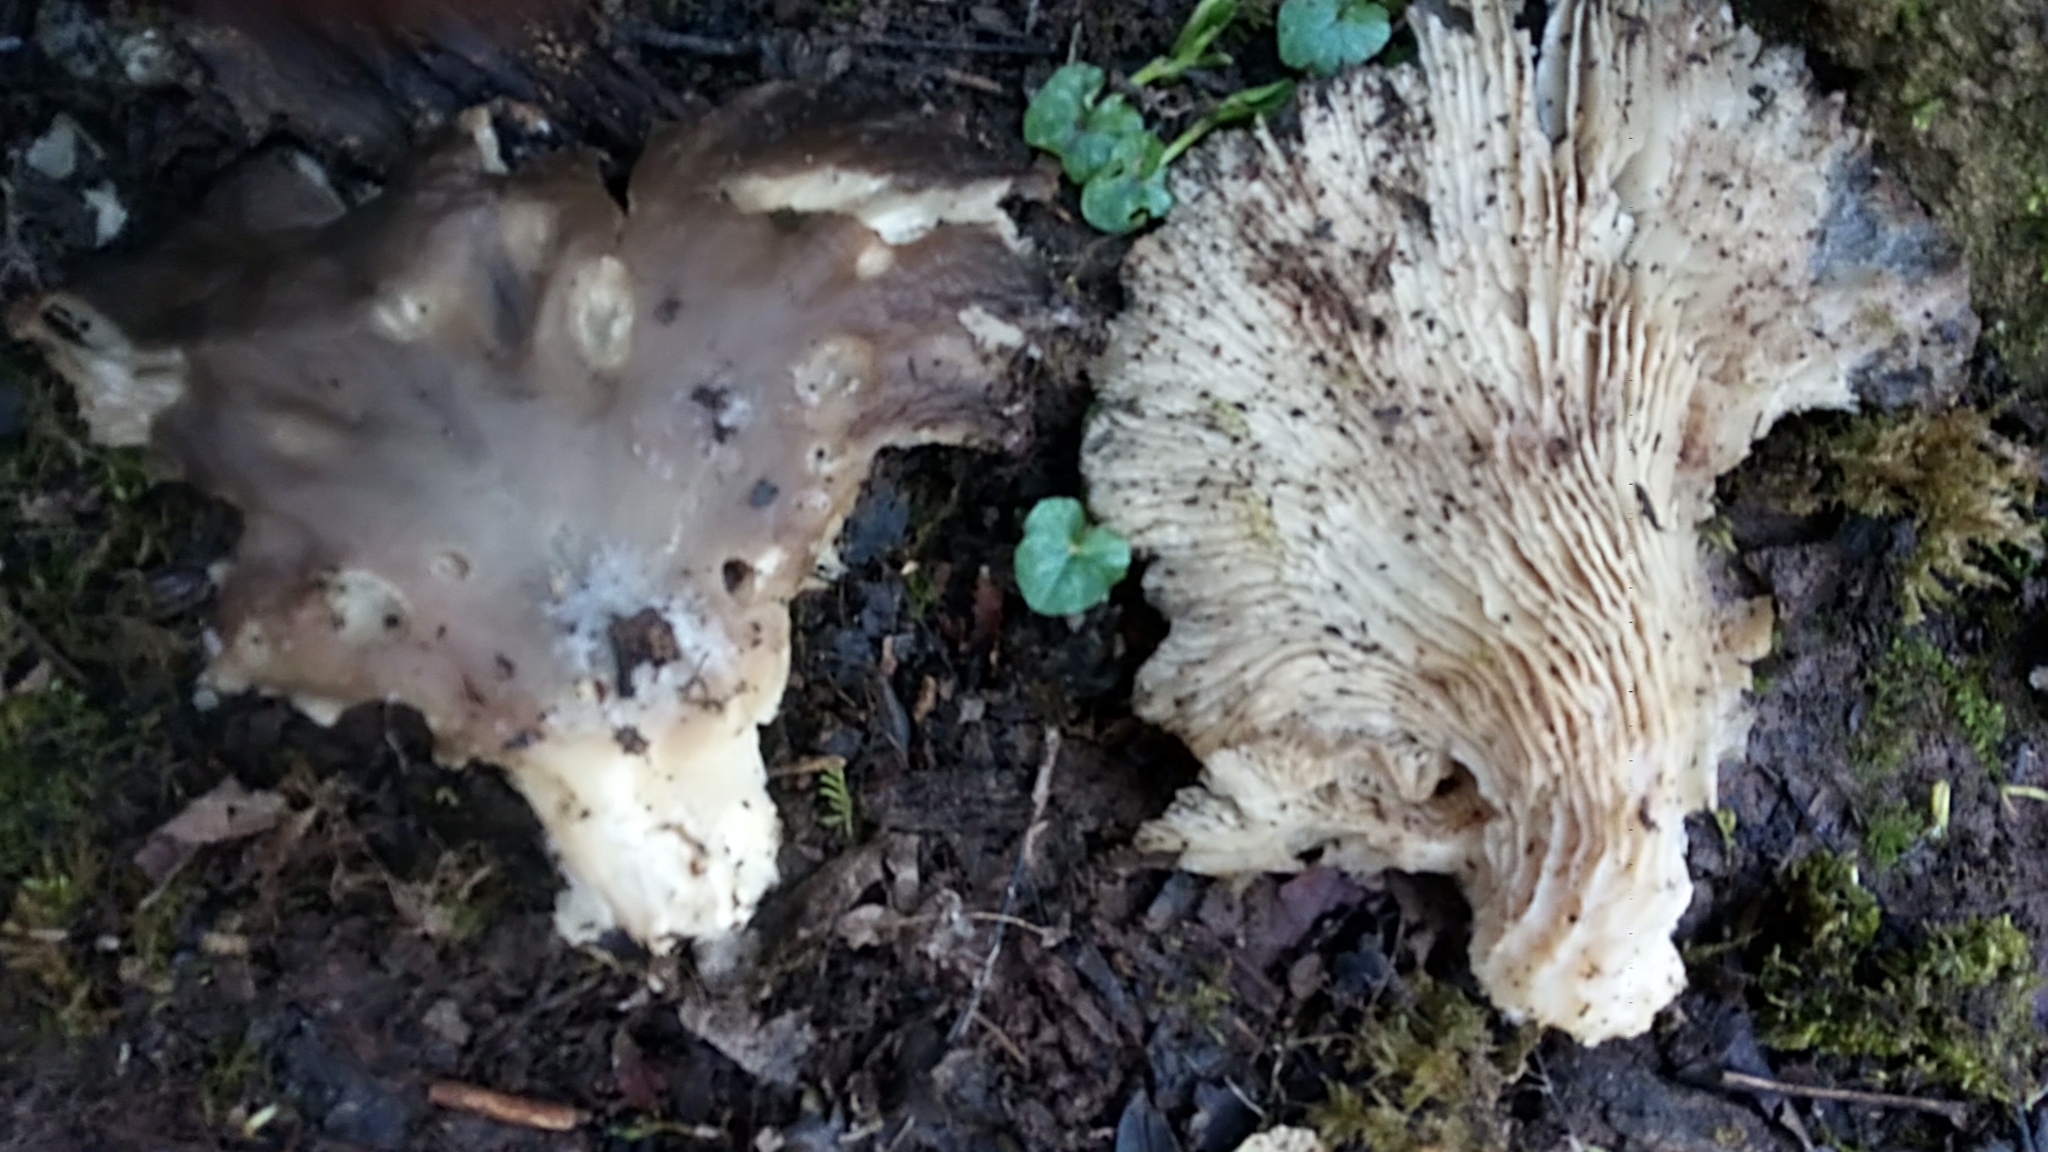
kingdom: Fungi
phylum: Basidiomycota
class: Agaricomycetes
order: Agaricales
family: Pleurotaceae
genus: Pleurotus
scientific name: Pleurotus ostreatus
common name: Oyster mushroom
